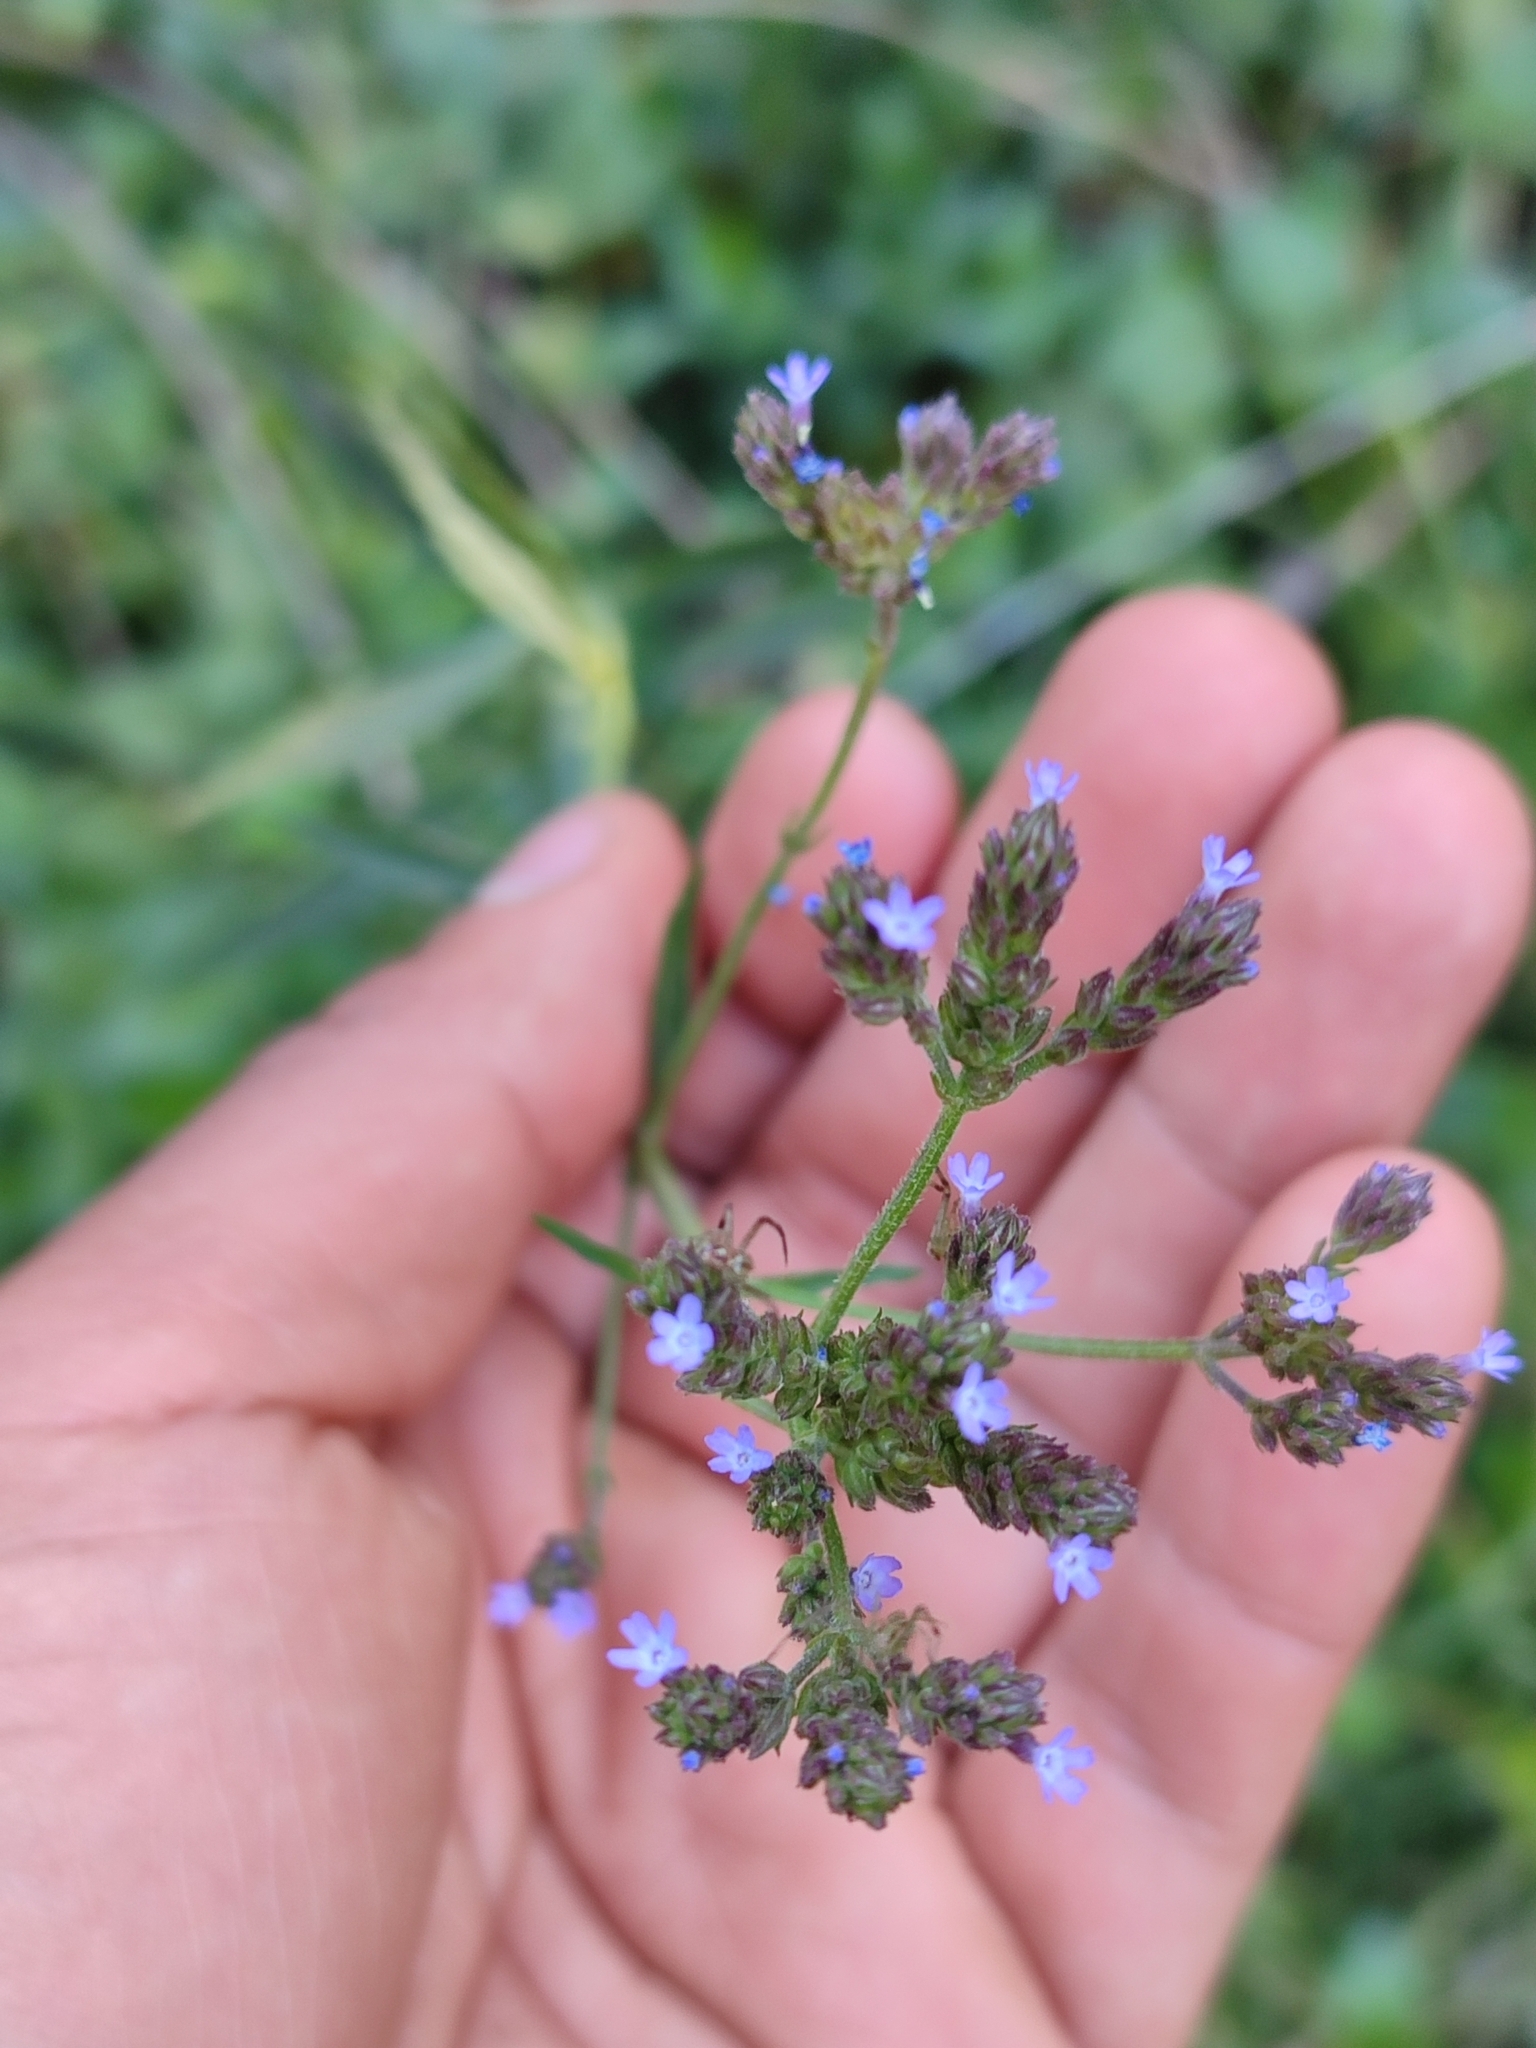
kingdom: Plantae
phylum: Tracheophyta
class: Magnoliopsida
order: Lamiales
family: Verbenaceae
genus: Verbena
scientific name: Verbena litoralis
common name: Seashore vervain
